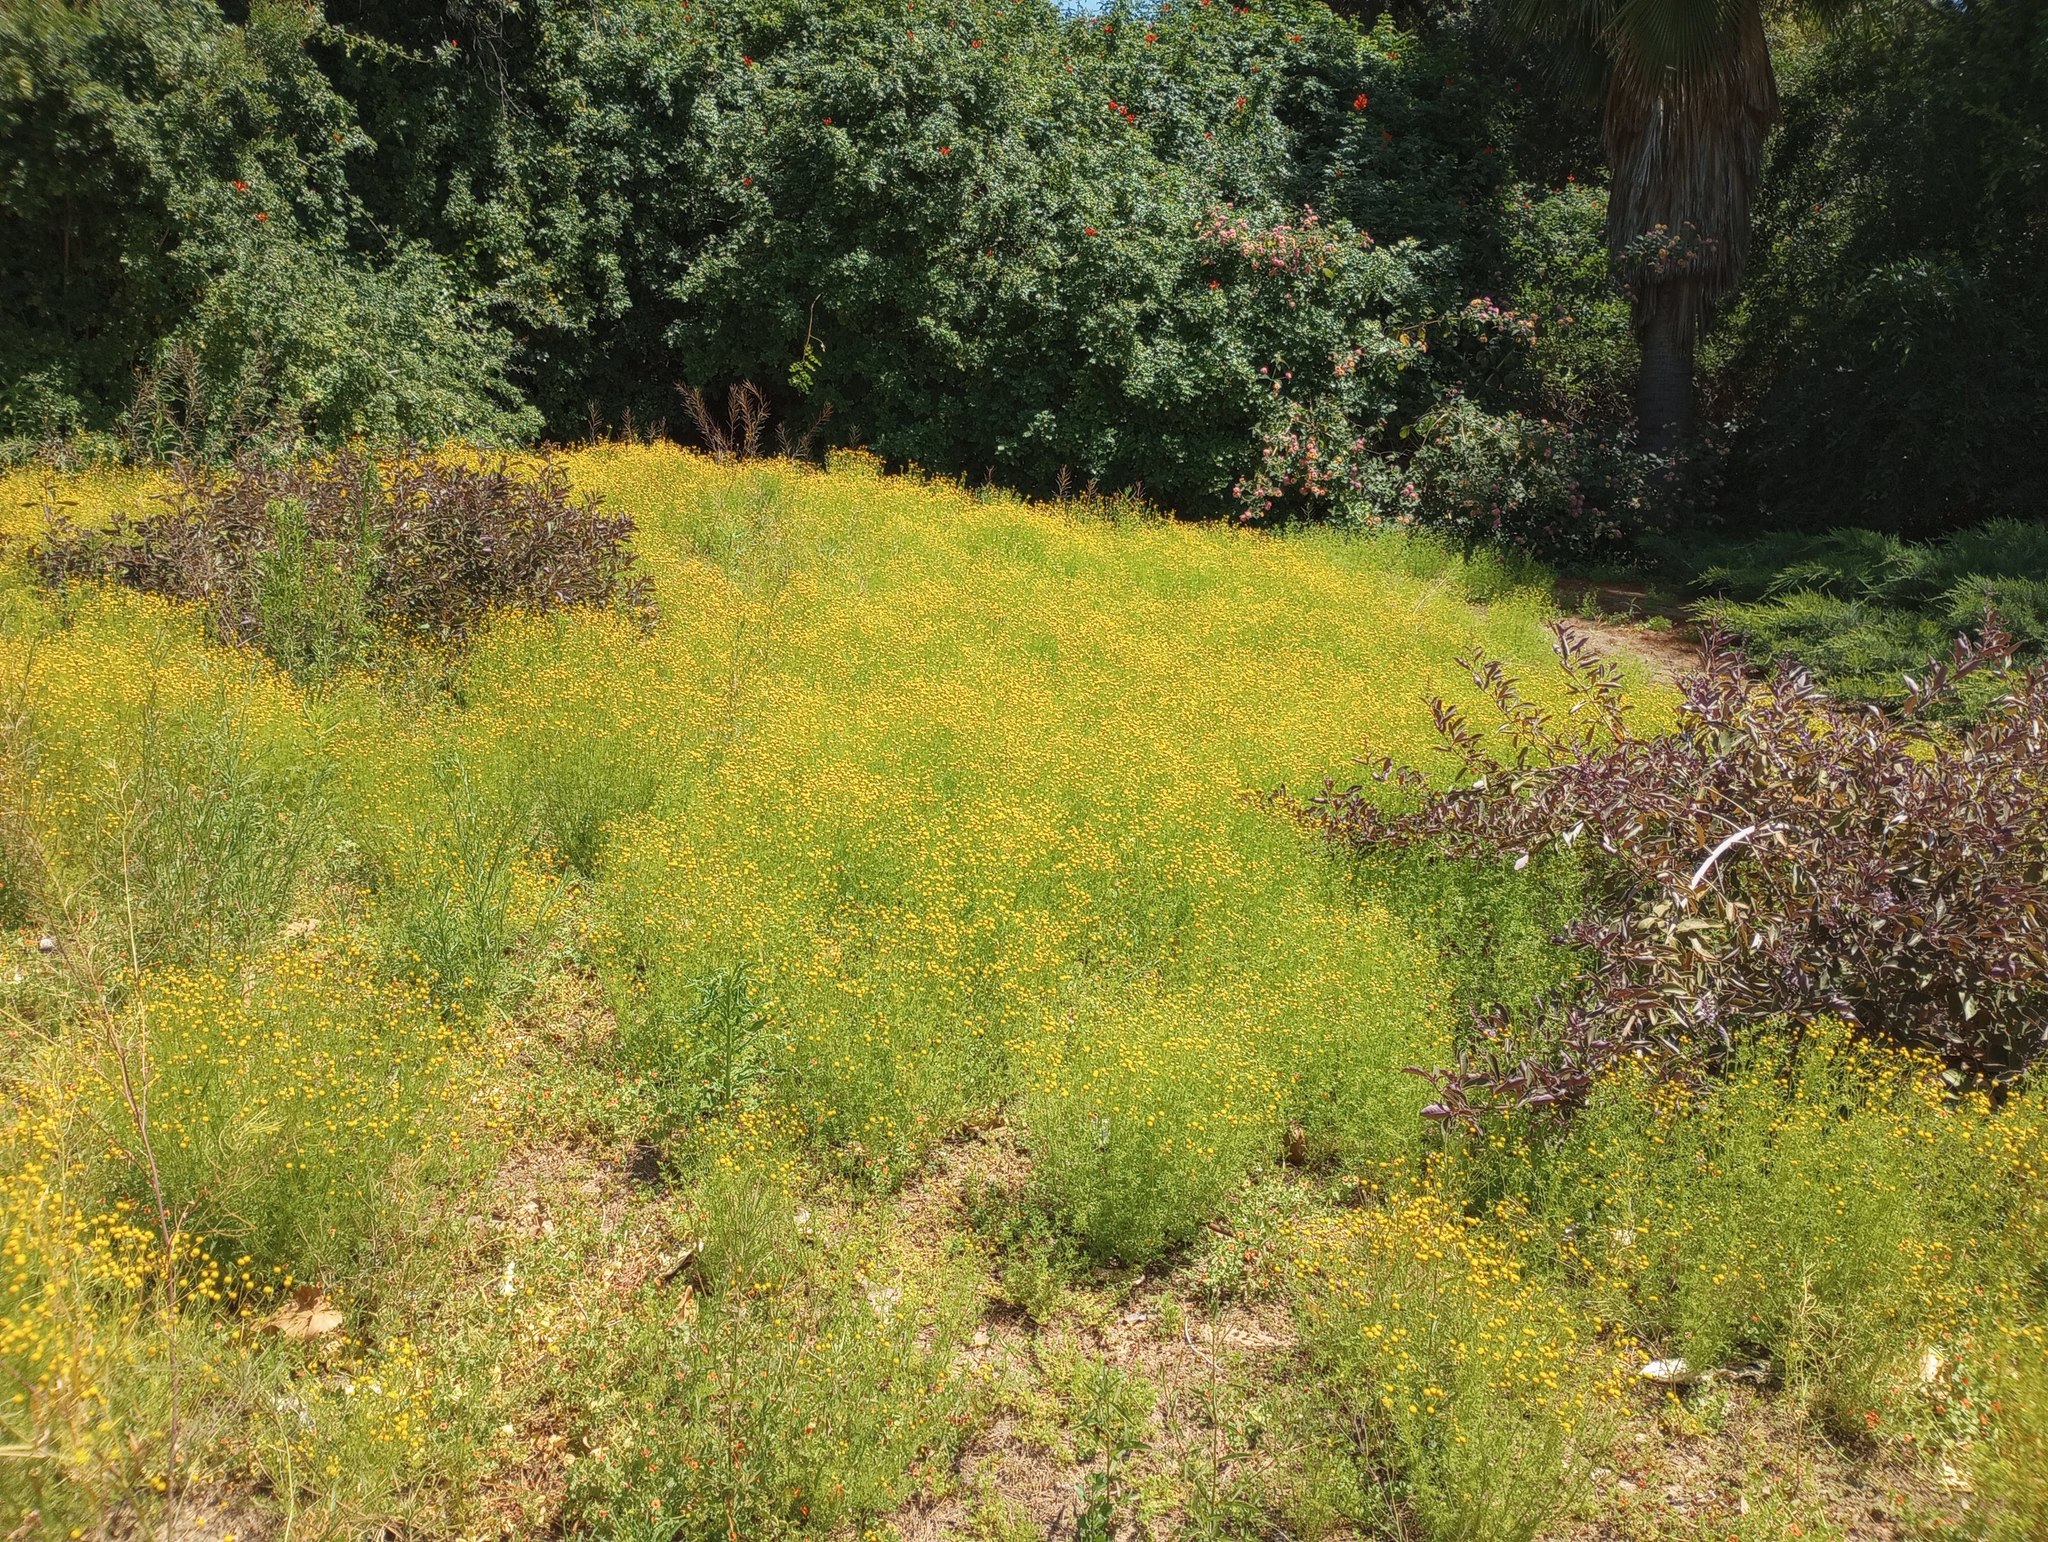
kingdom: Plantae
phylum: Tracheophyta
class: Magnoliopsida
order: Asterales
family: Asteraceae
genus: Oncosiphon
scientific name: Oncosiphon pilulifer
